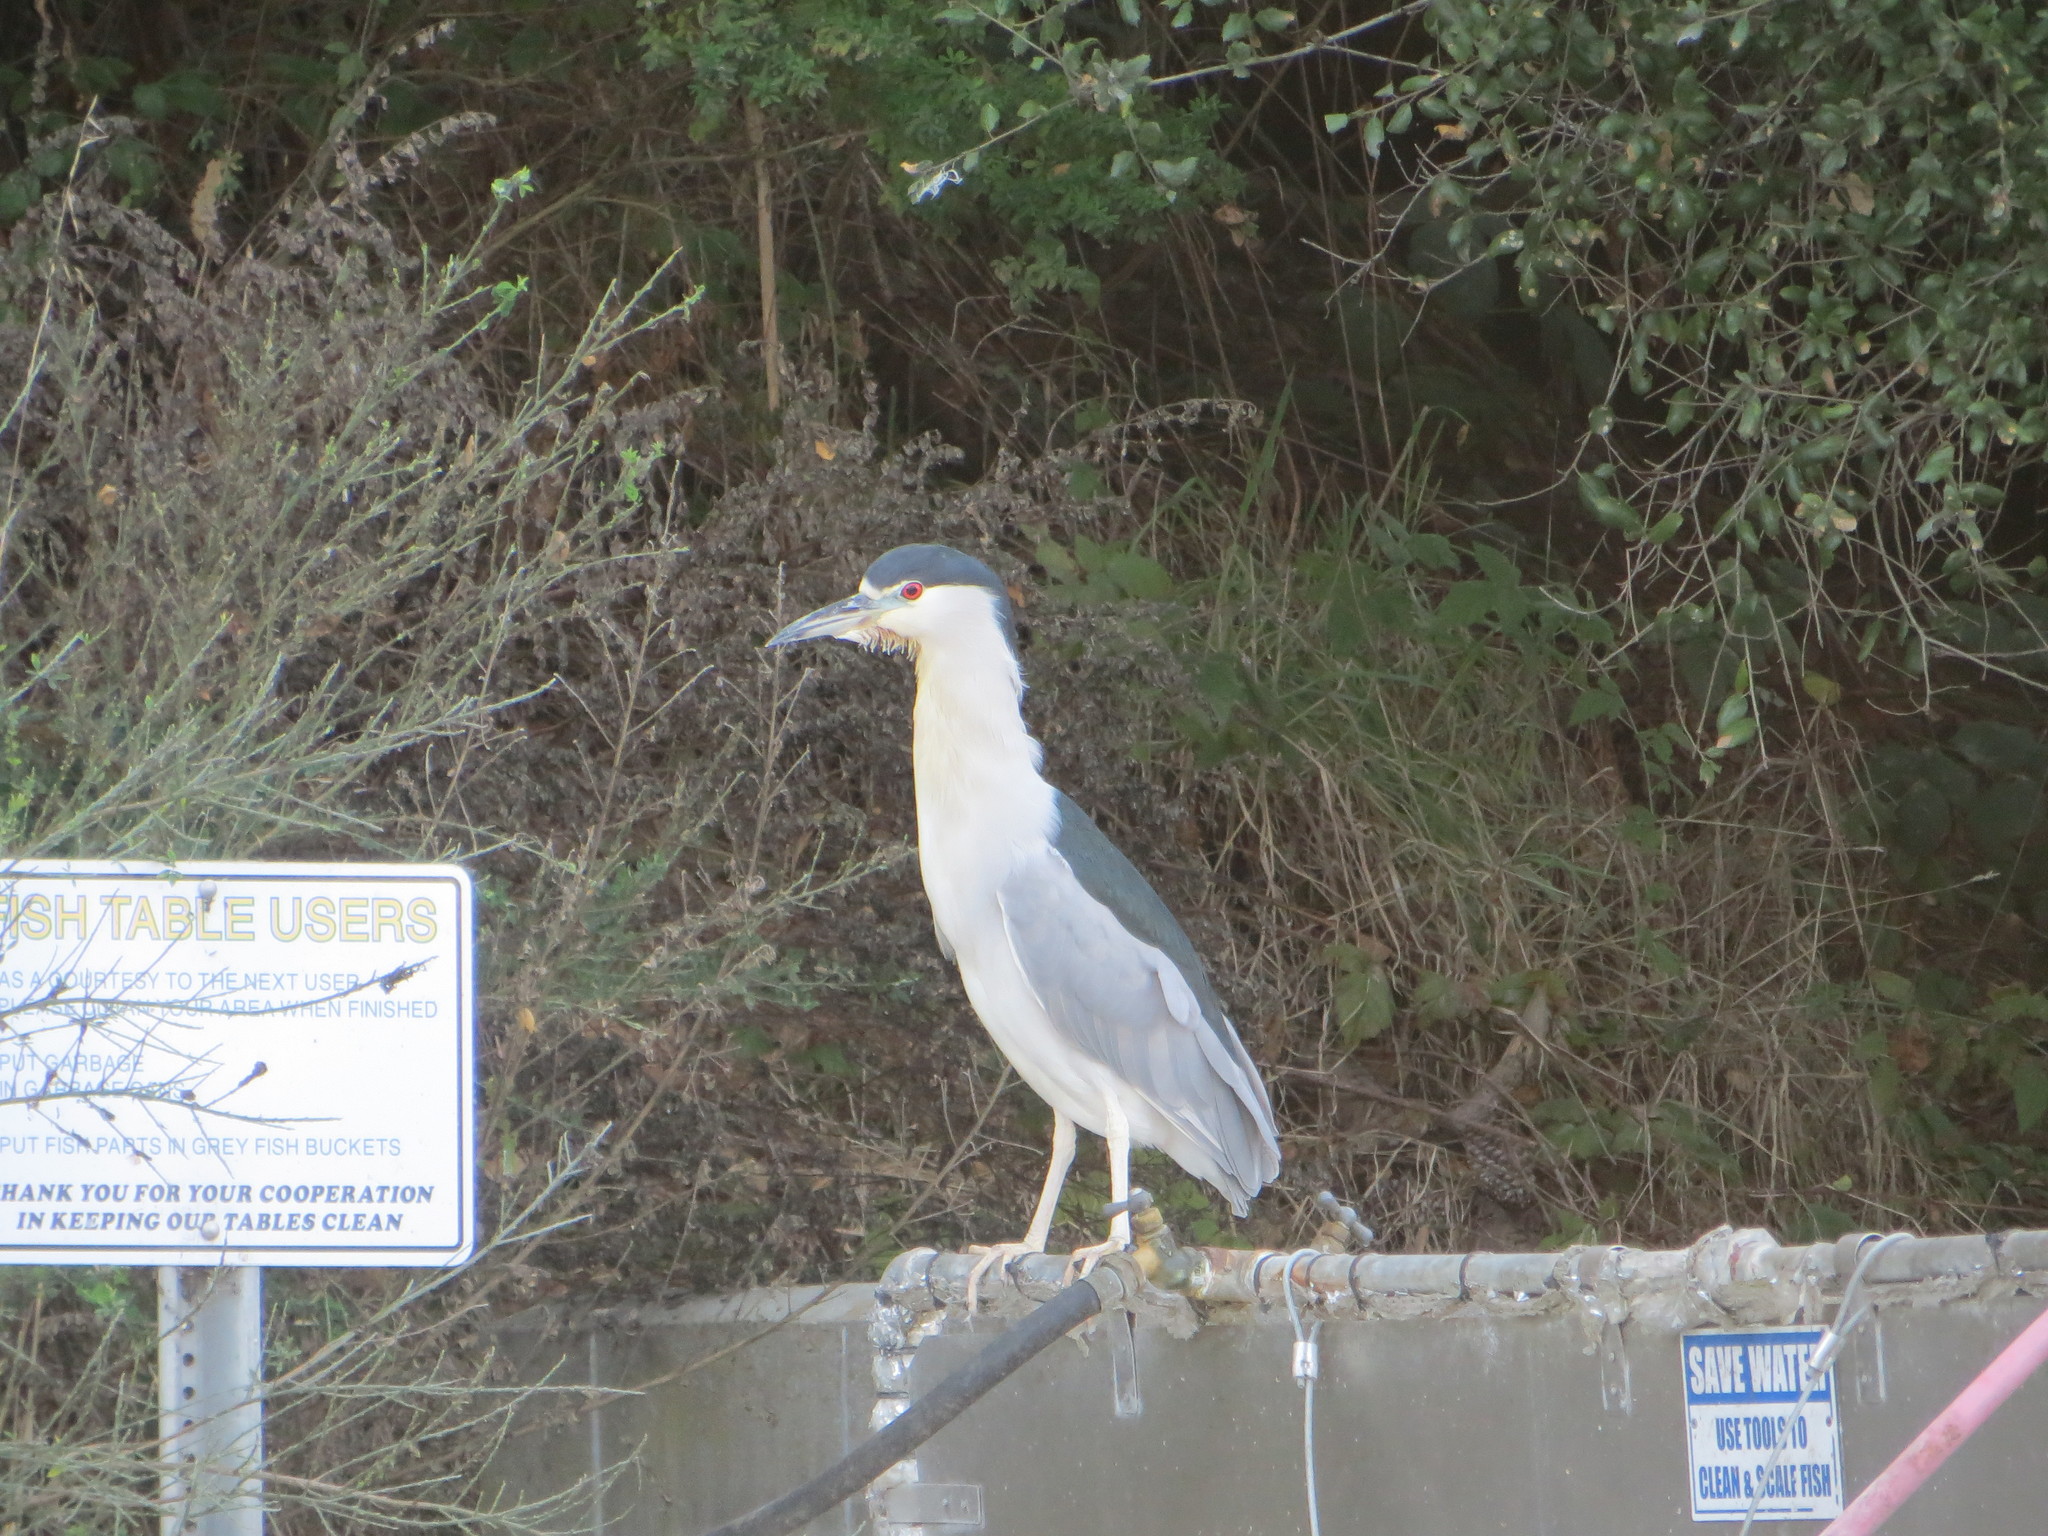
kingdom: Animalia
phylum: Chordata
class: Aves
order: Pelecaniformes
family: Ardeidae
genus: Nycticorax
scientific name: Nycticorax nycticorax
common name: Black-crowned night heron
